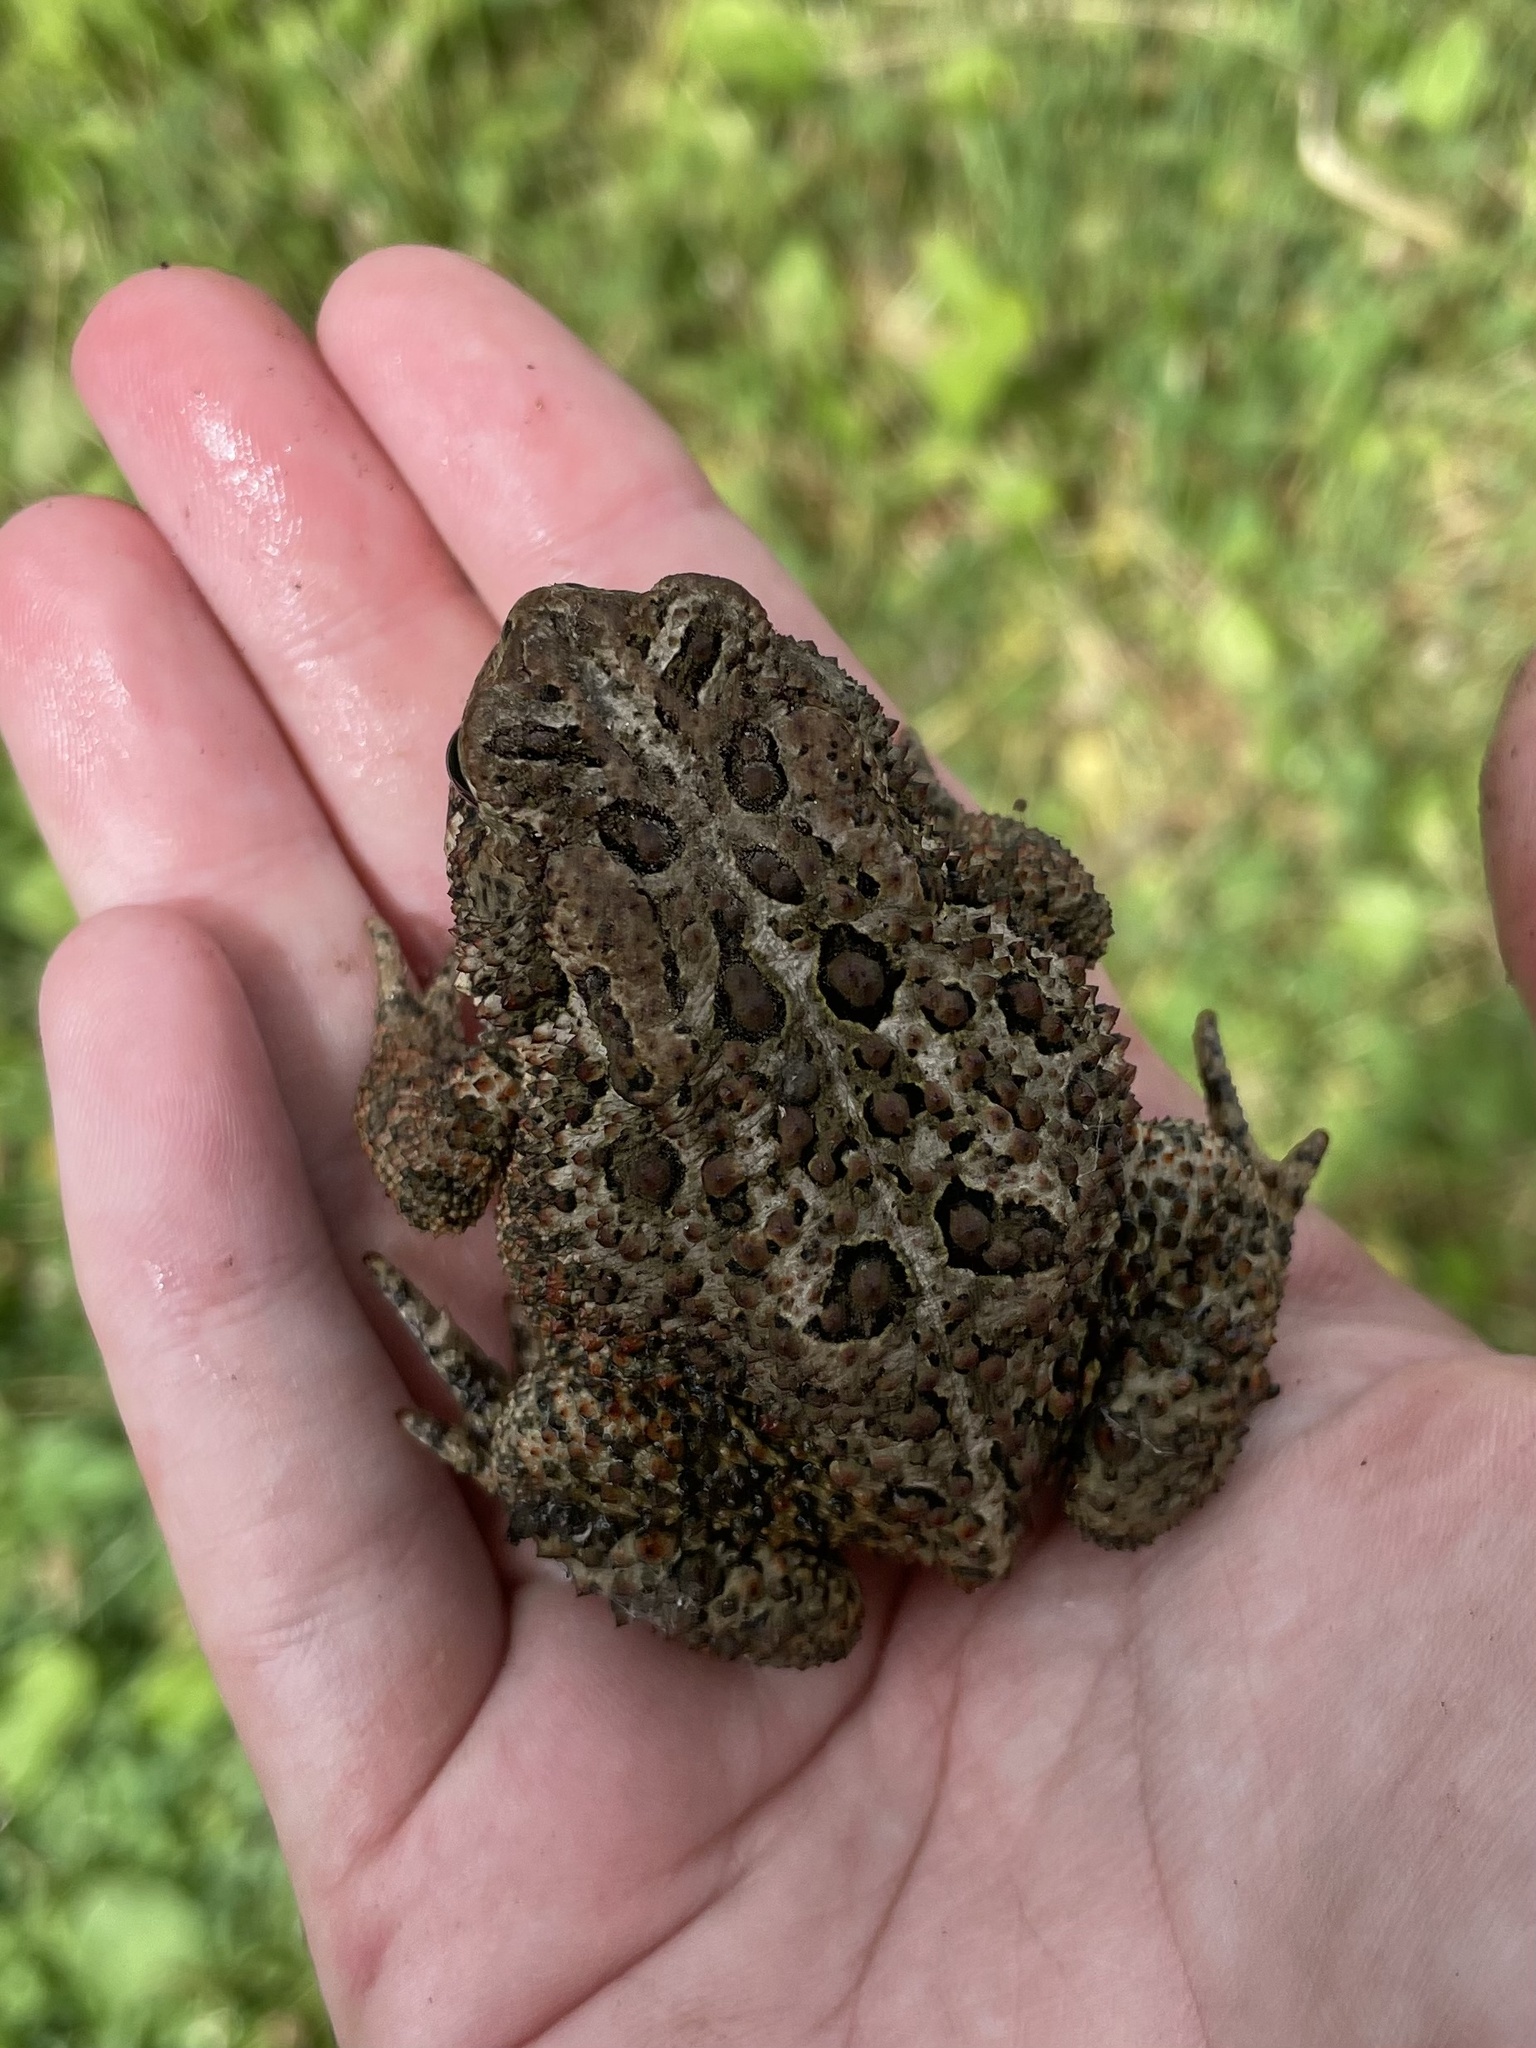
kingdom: Animalia
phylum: Chordata
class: Amphibia
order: Anura
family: Bufonidae
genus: Anaxyrus
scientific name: Anaxyrus americanus
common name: American toad
